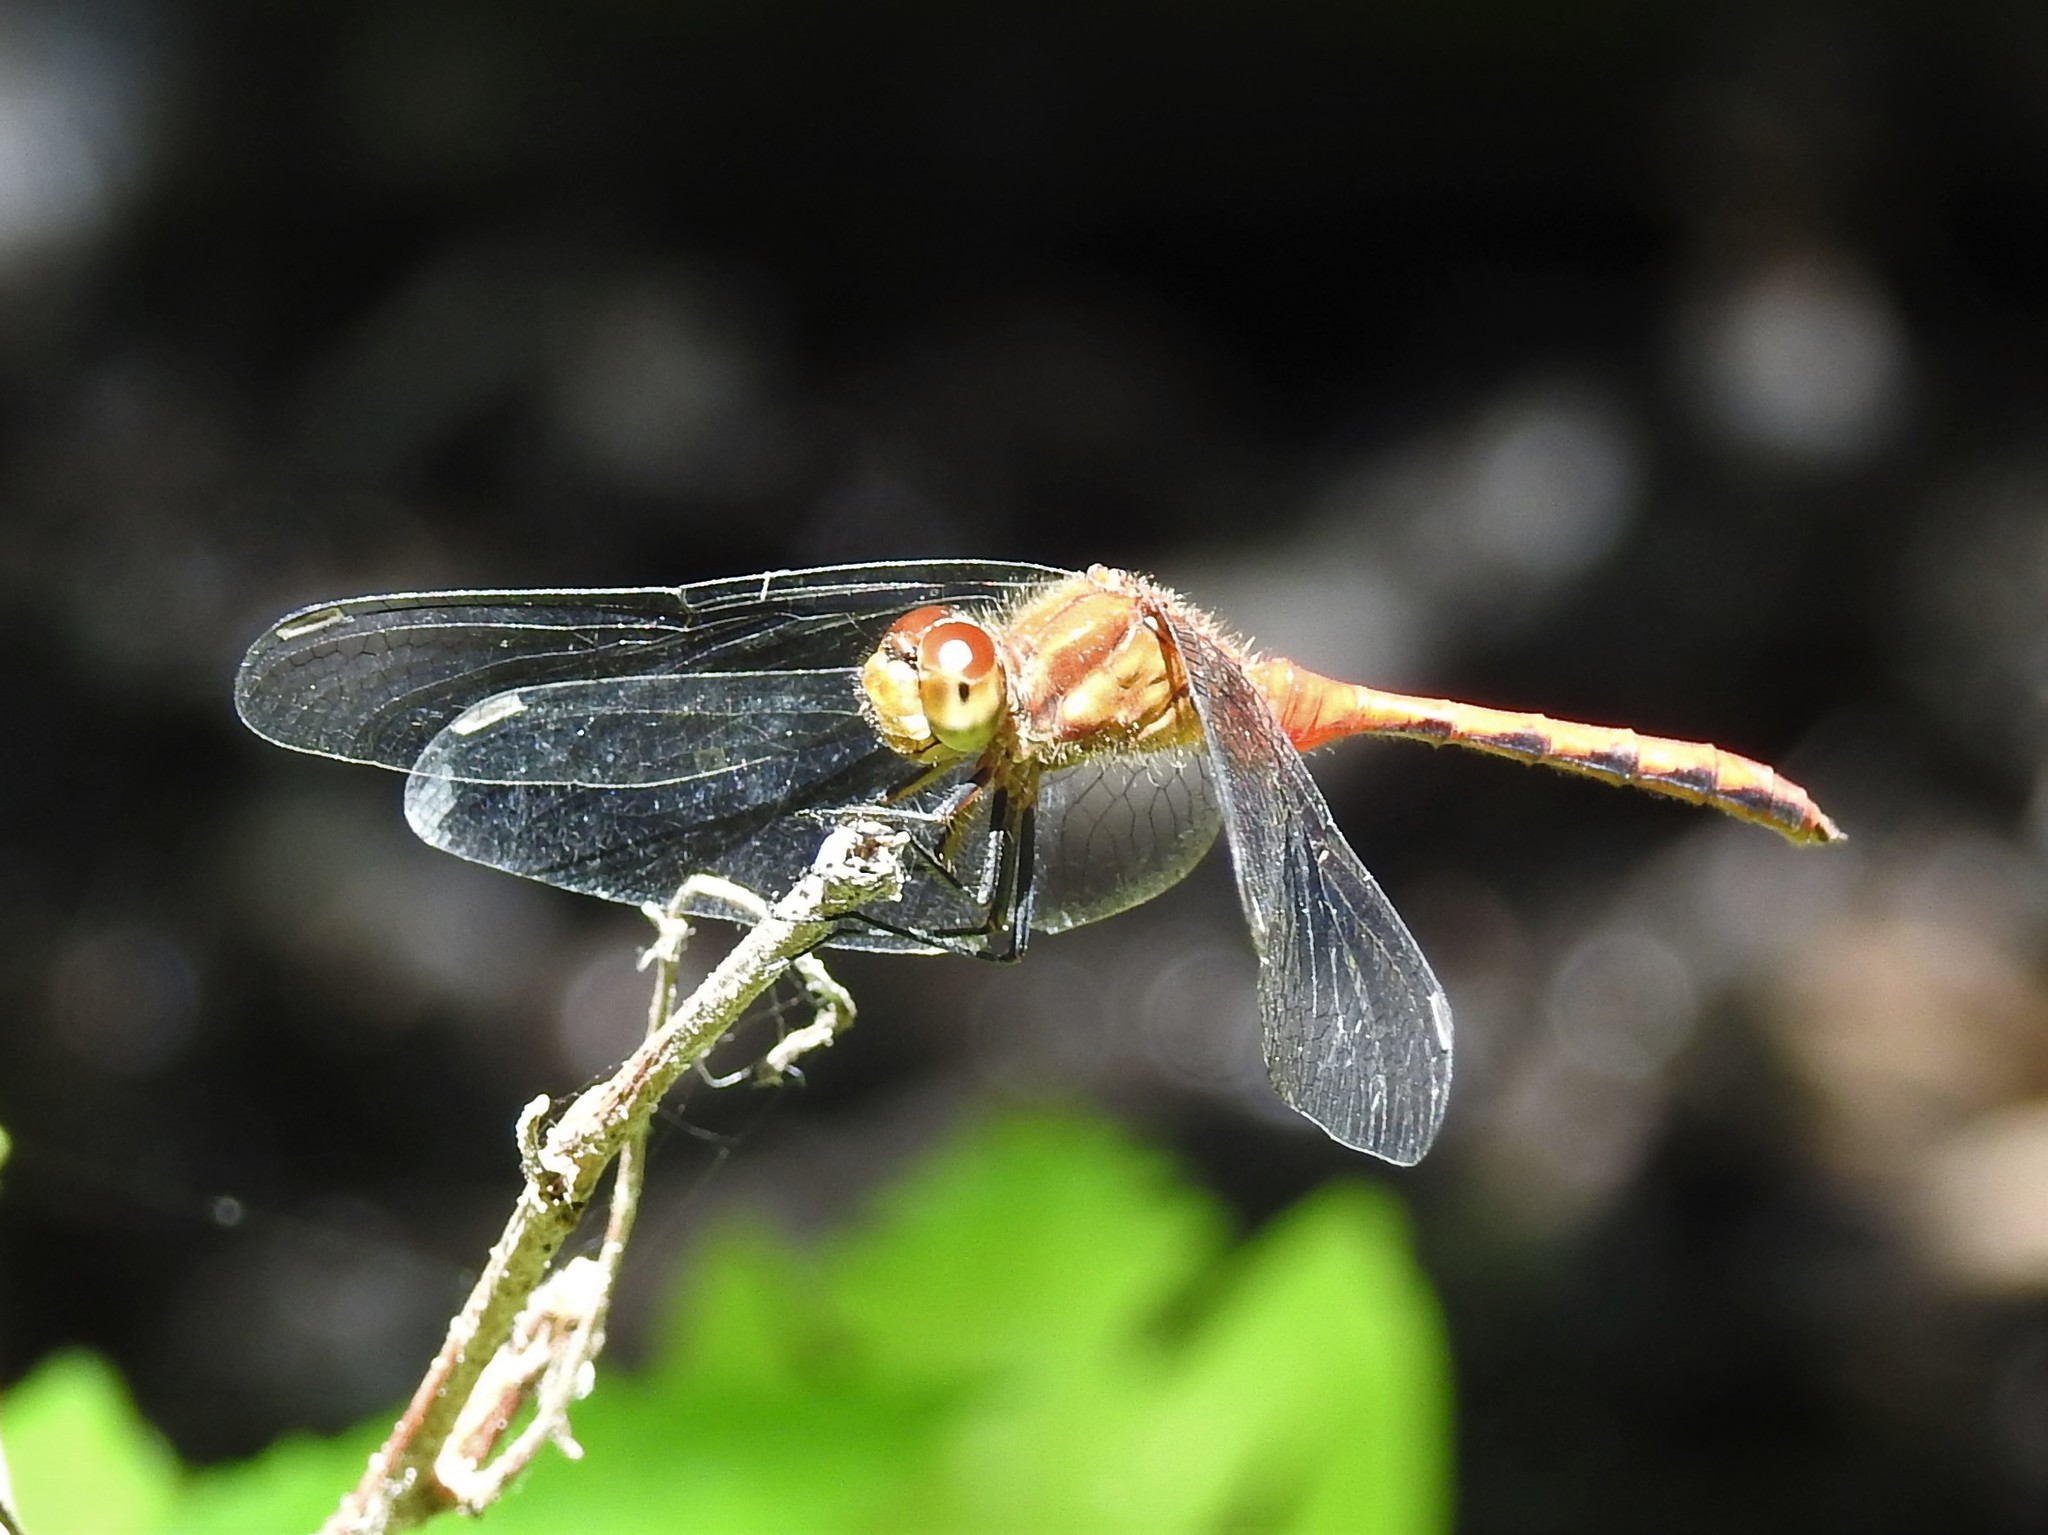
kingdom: Animalia
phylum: Arthropoda
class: Insecta
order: Odonata
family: Libellulidae
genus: Sympetrum
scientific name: Sympetrum
